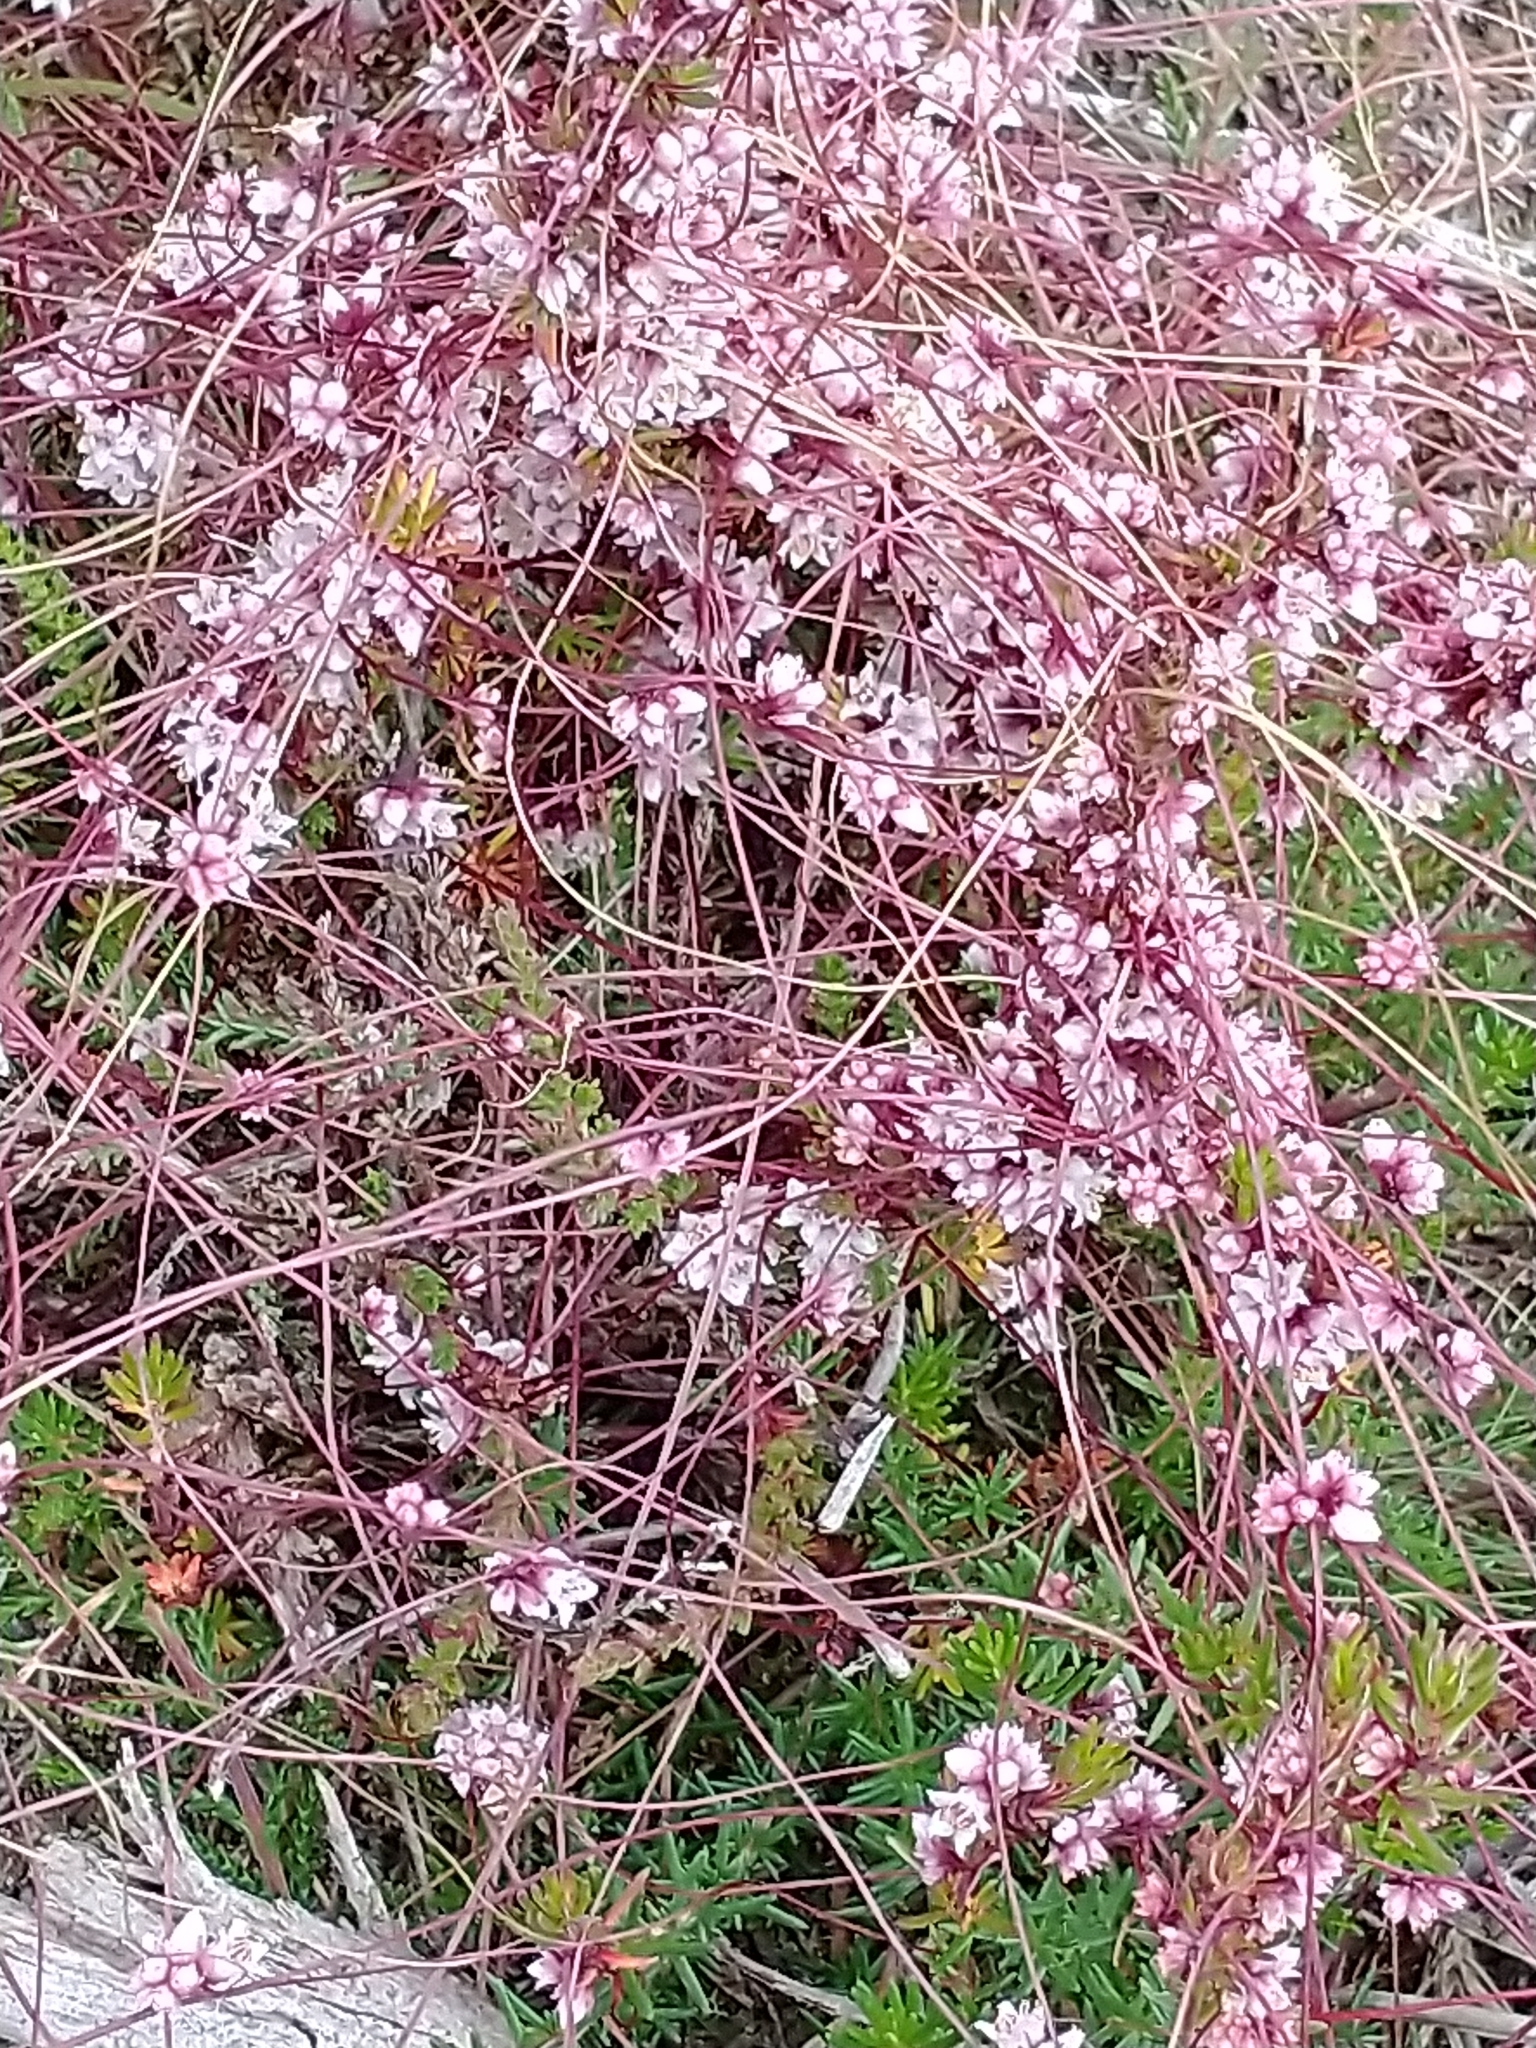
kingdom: Plantae
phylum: Tracheophyta
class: Magnoliopsida
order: Solanales
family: Convolvulaceae
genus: Cuscuta
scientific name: Cuscuta epithymum
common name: Clover dodder
